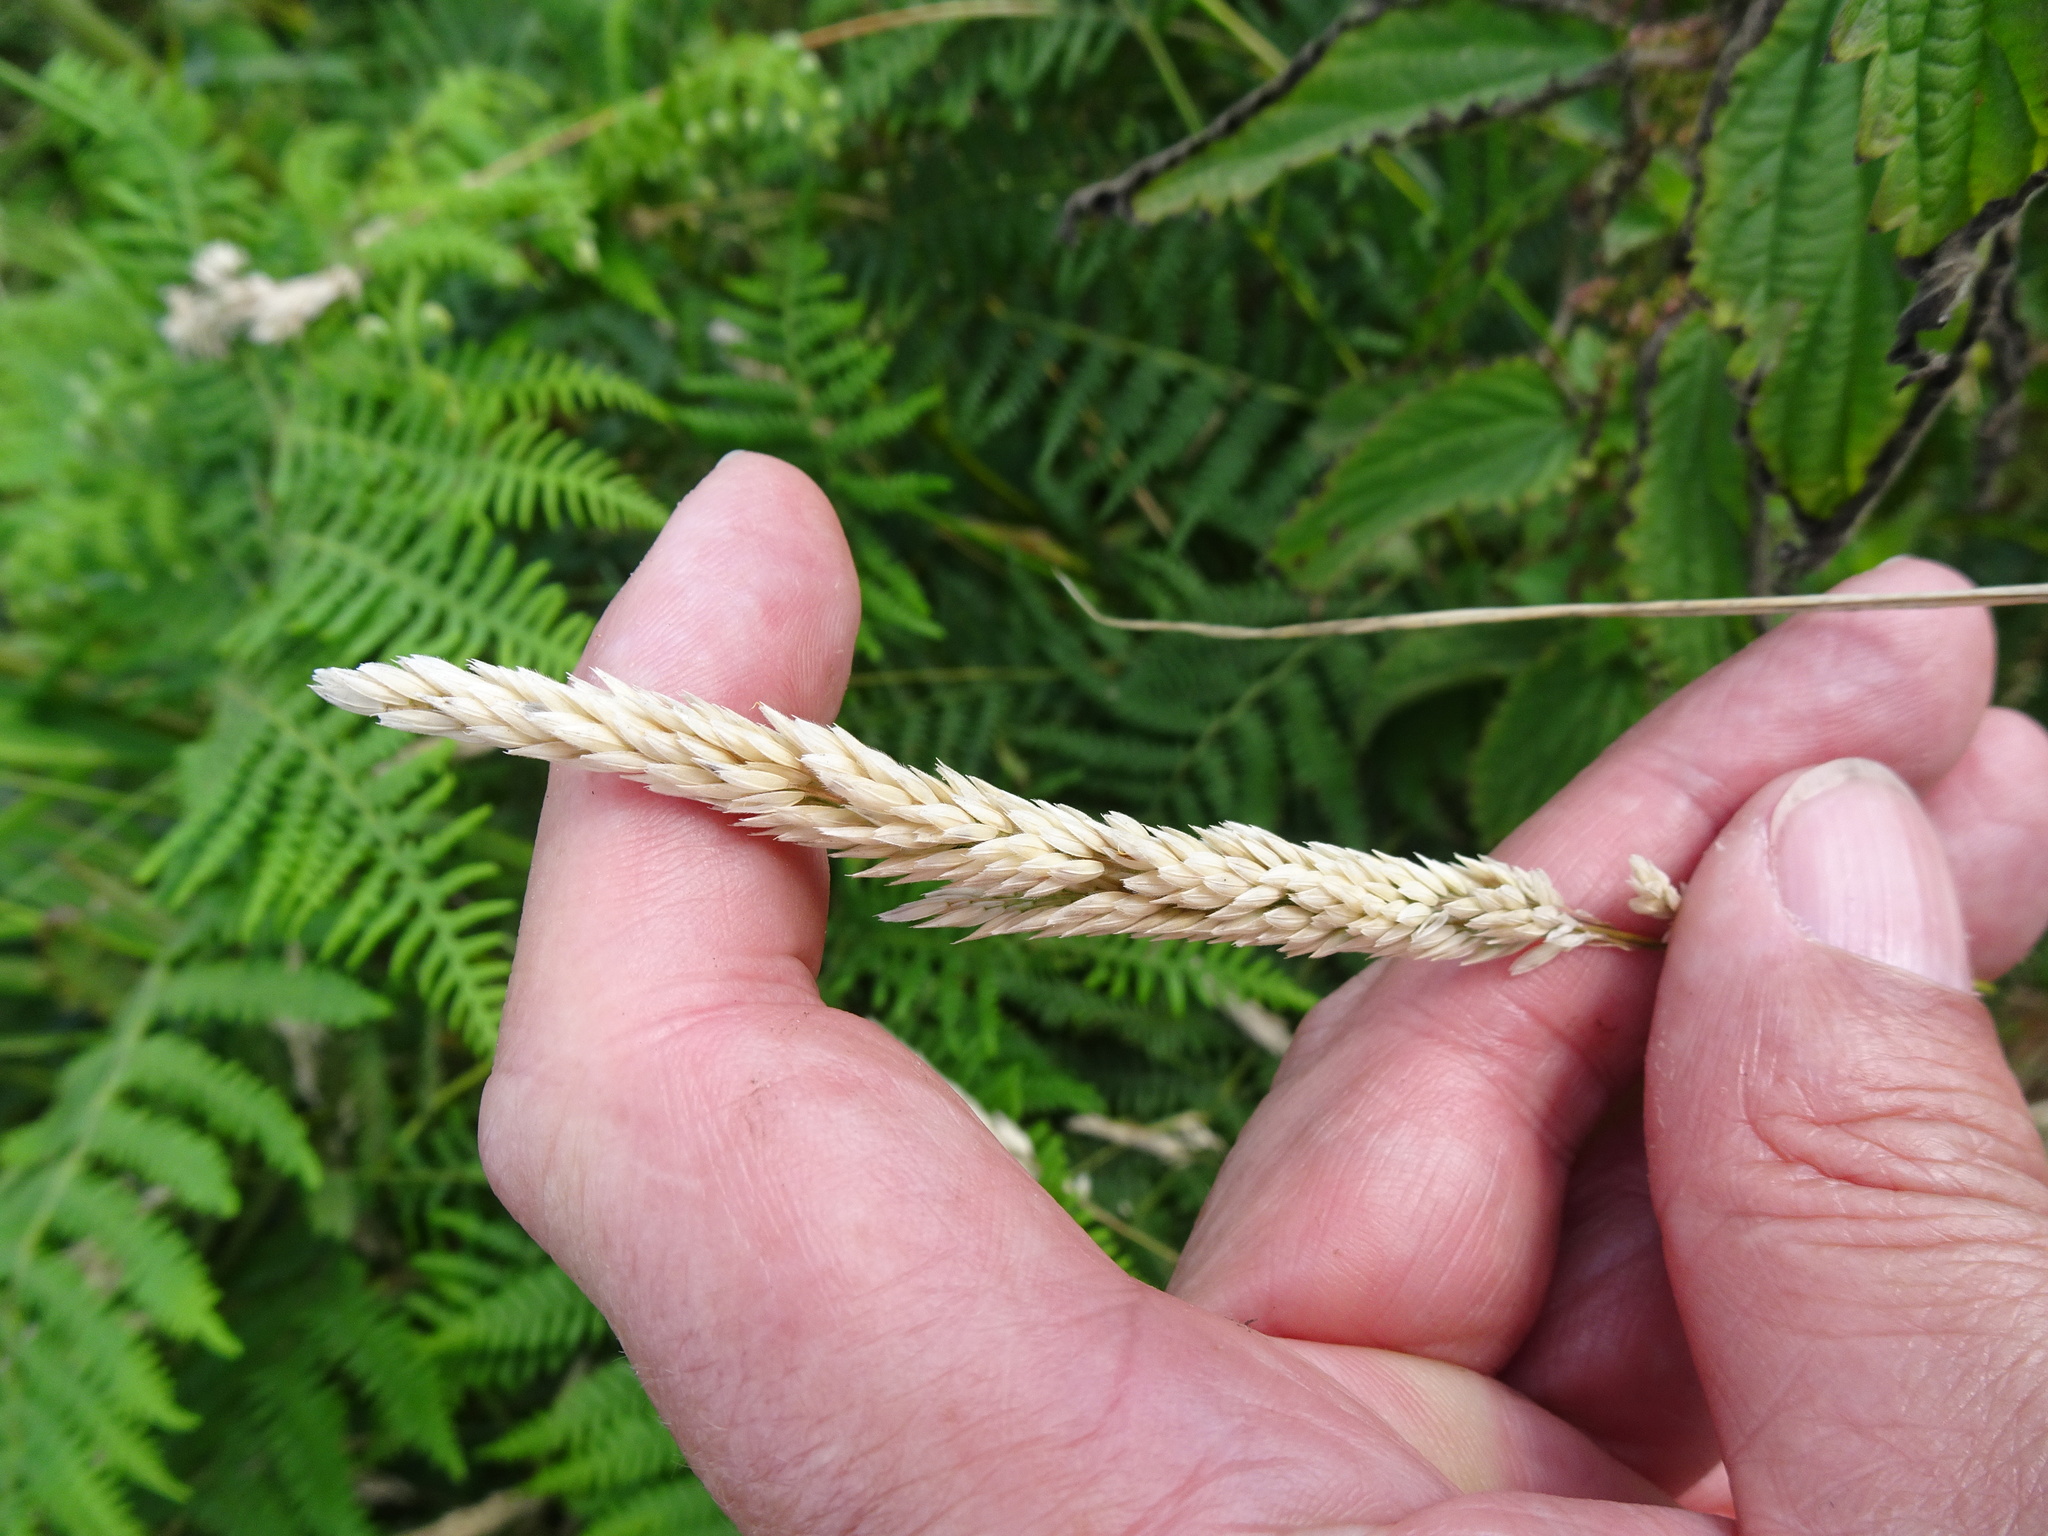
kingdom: Plantae
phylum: Tracheophyta
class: Liliopsida
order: Poales
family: Poaceae
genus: Holcus
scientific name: Holcus lanatus
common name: Yorkshire-fog
